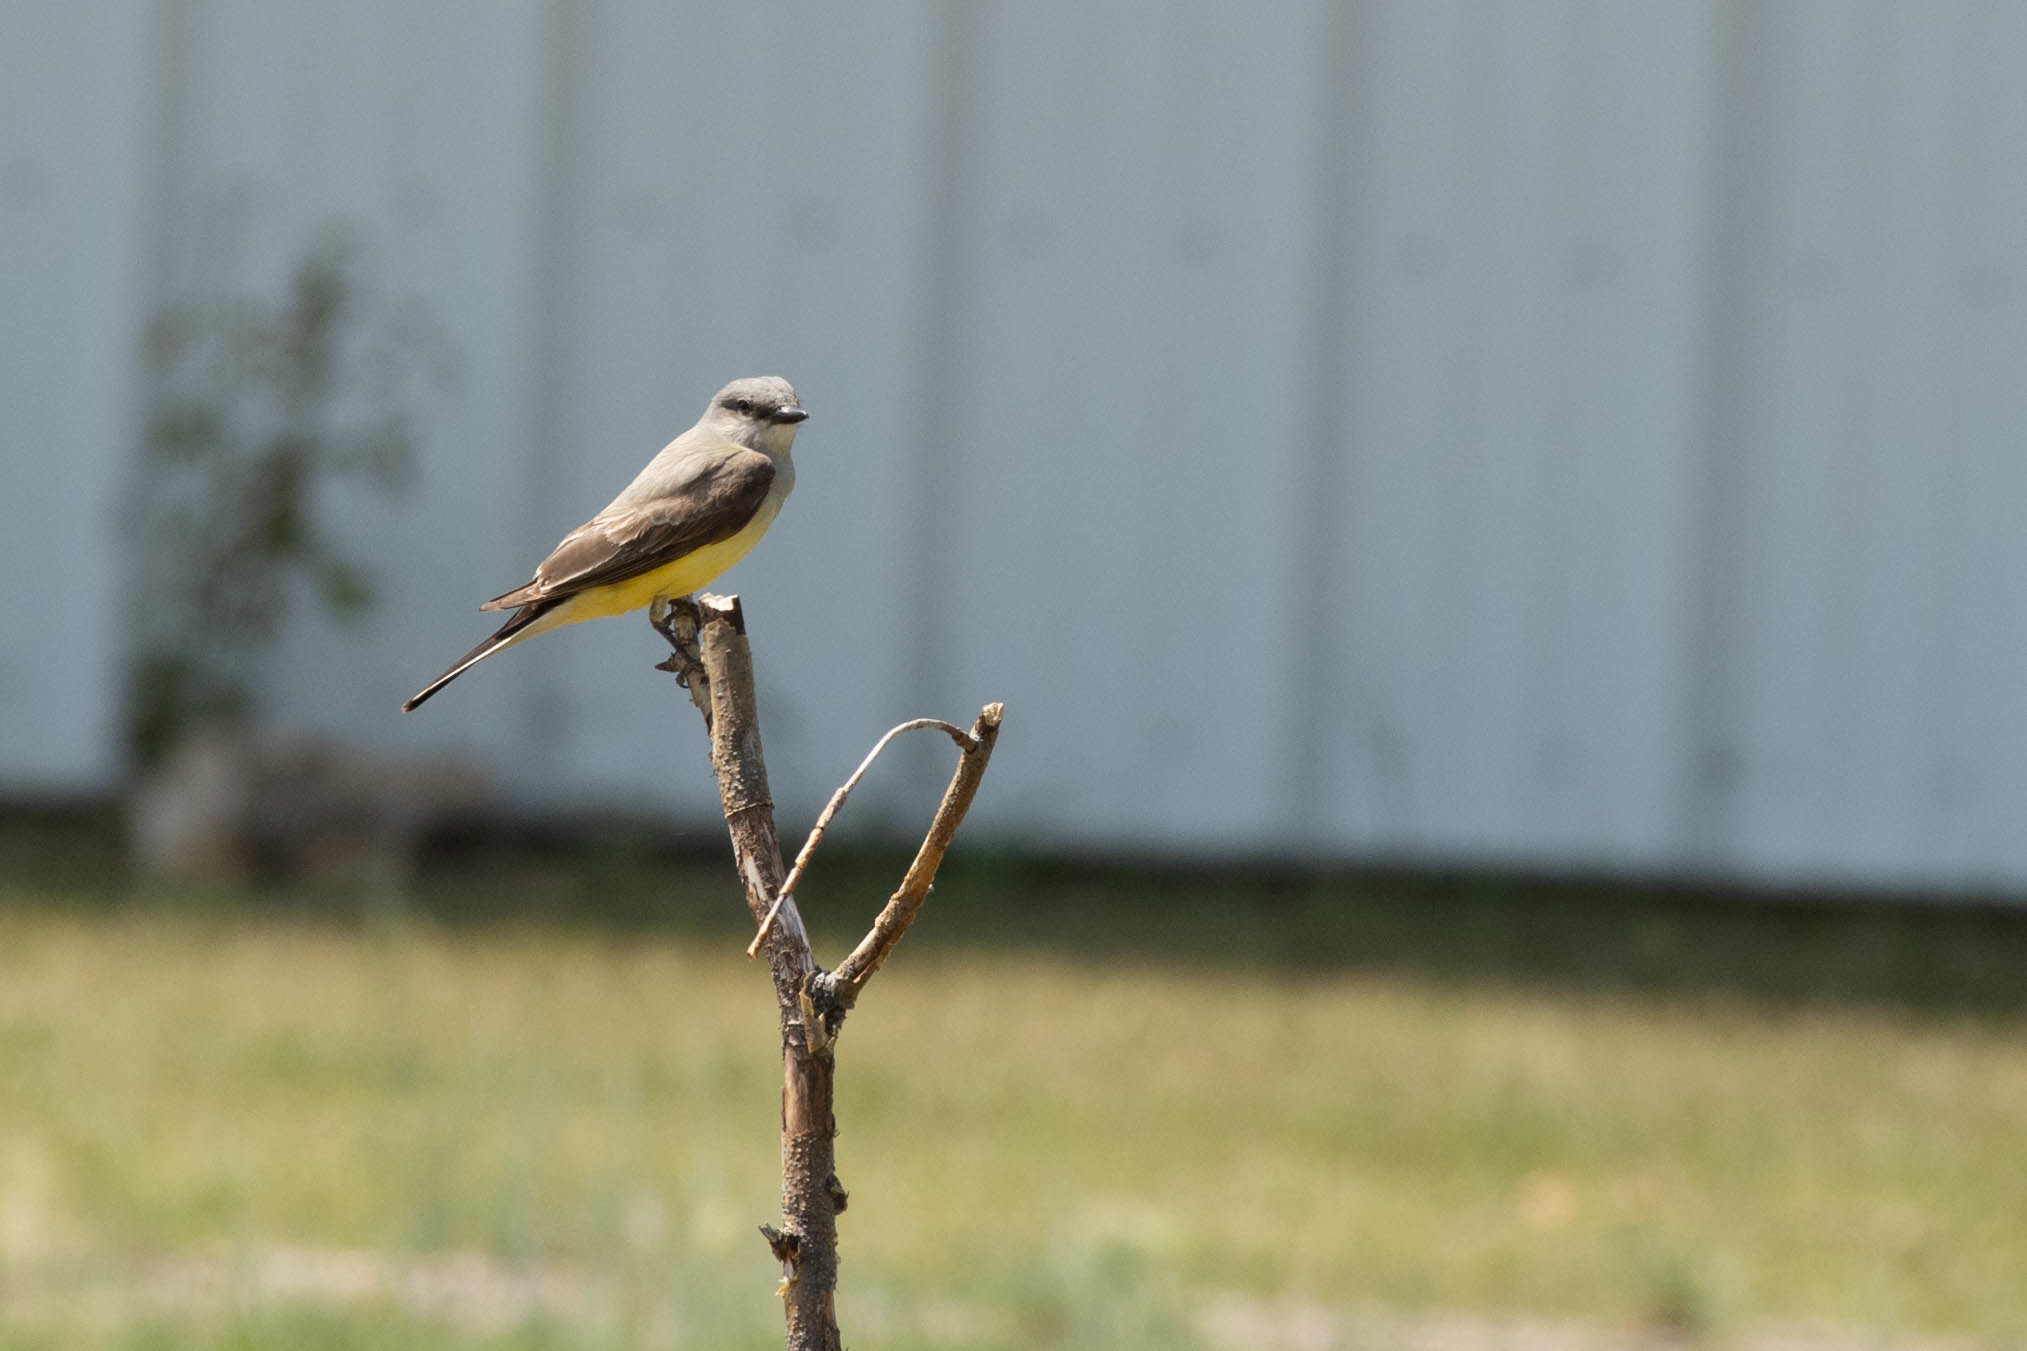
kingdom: Animalia
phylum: Chordata
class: Aves
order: Passeriformes
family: Tyrannidae
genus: Tyrannus
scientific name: Tyrannus verticalis
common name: Western kingbird
